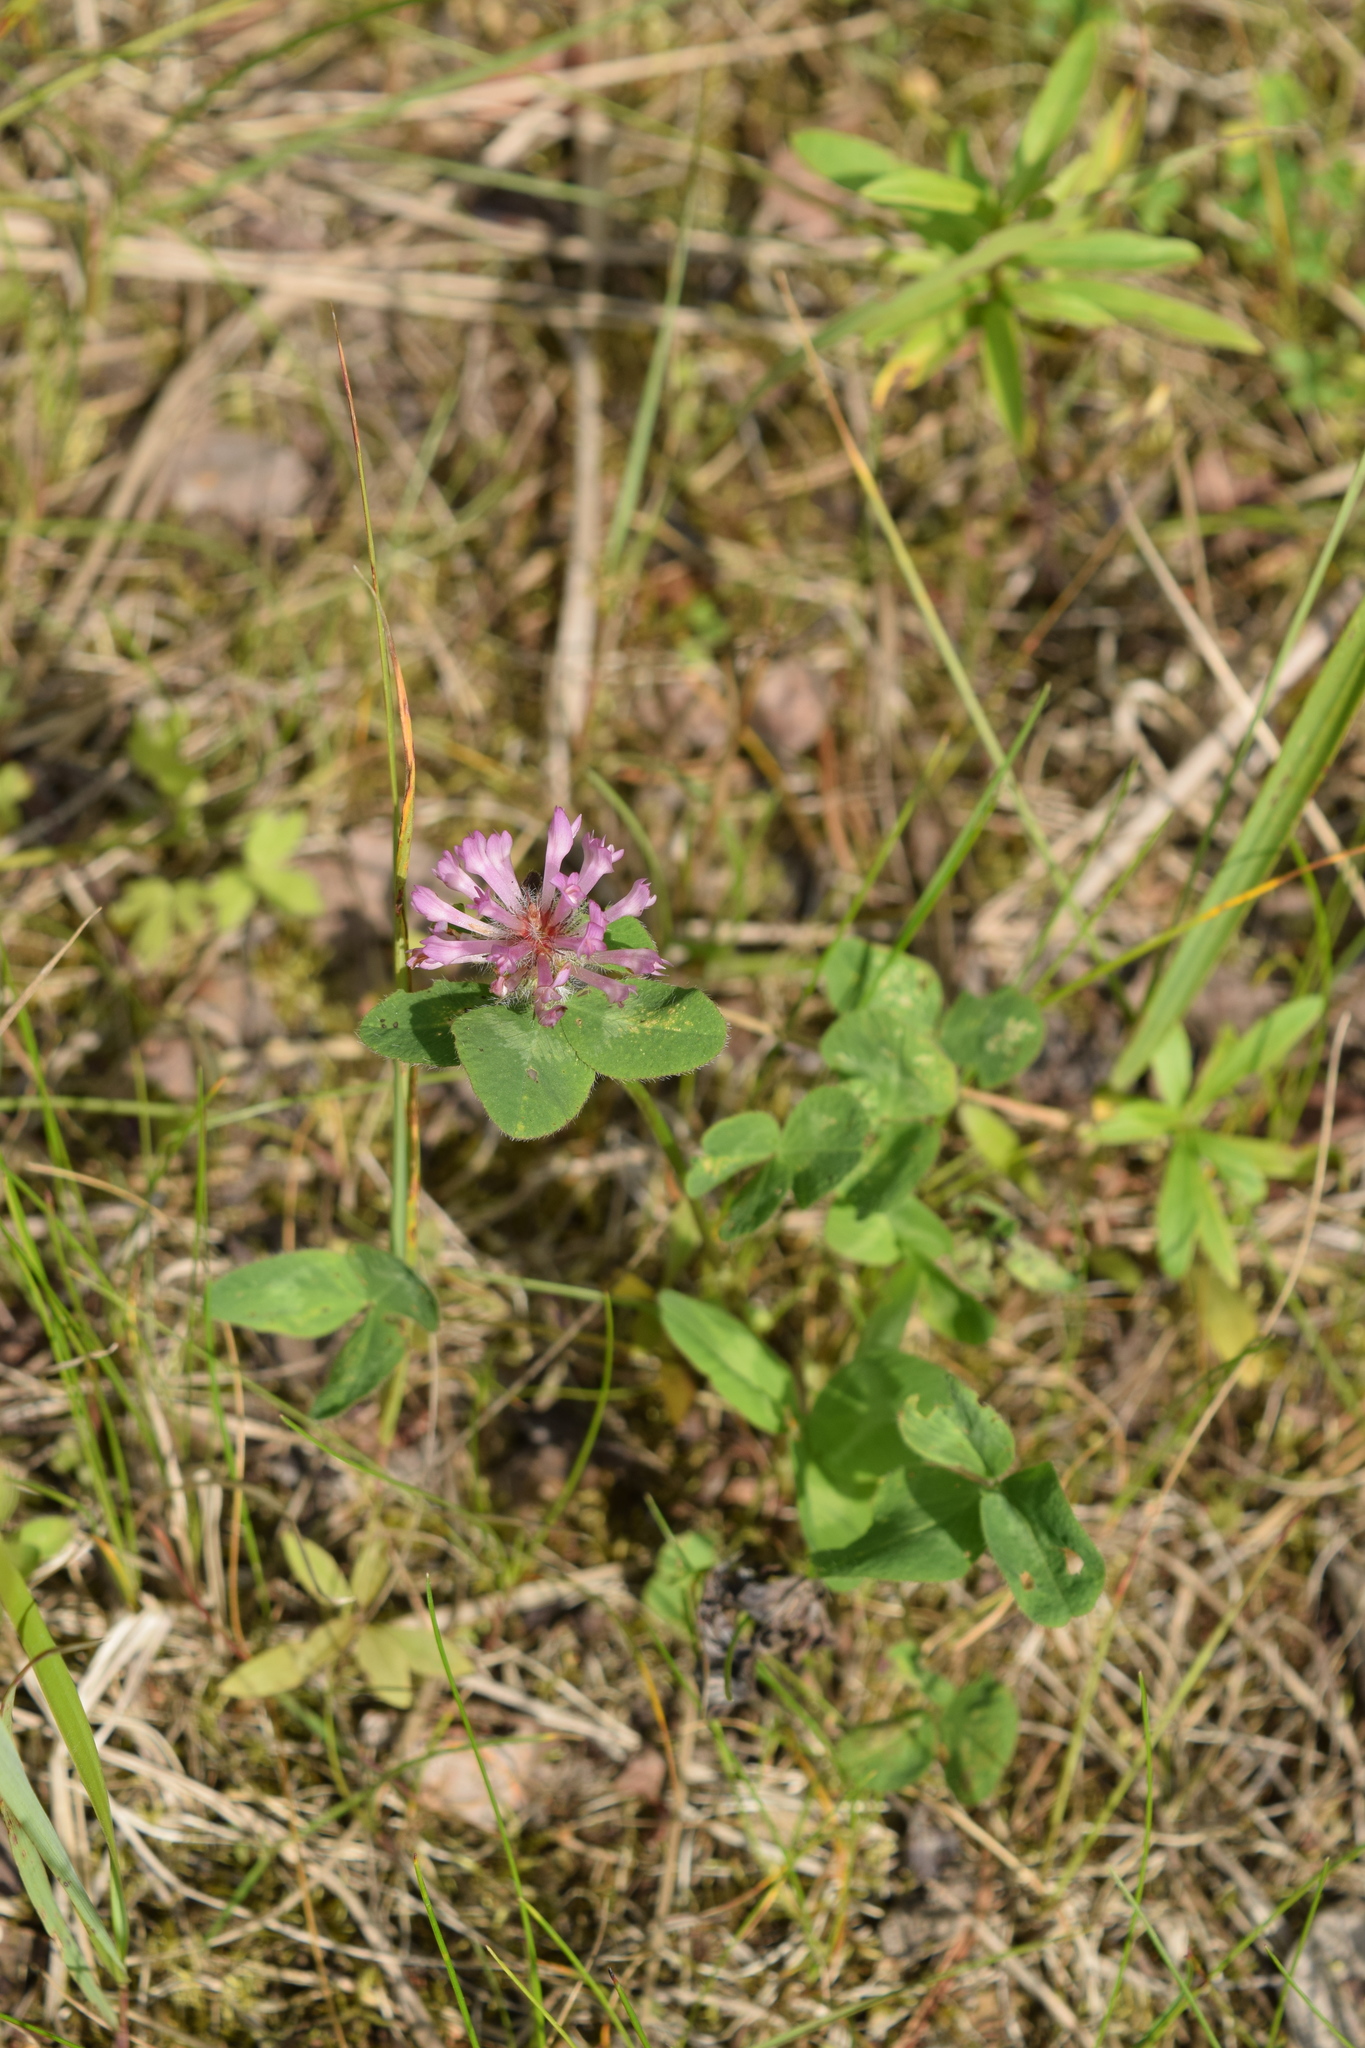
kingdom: Plantae
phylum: Tracheophyta
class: Magnoliopsida
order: Fabales
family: Fabaceae
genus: Trifolium
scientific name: Trifolium pratense
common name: Red clover
